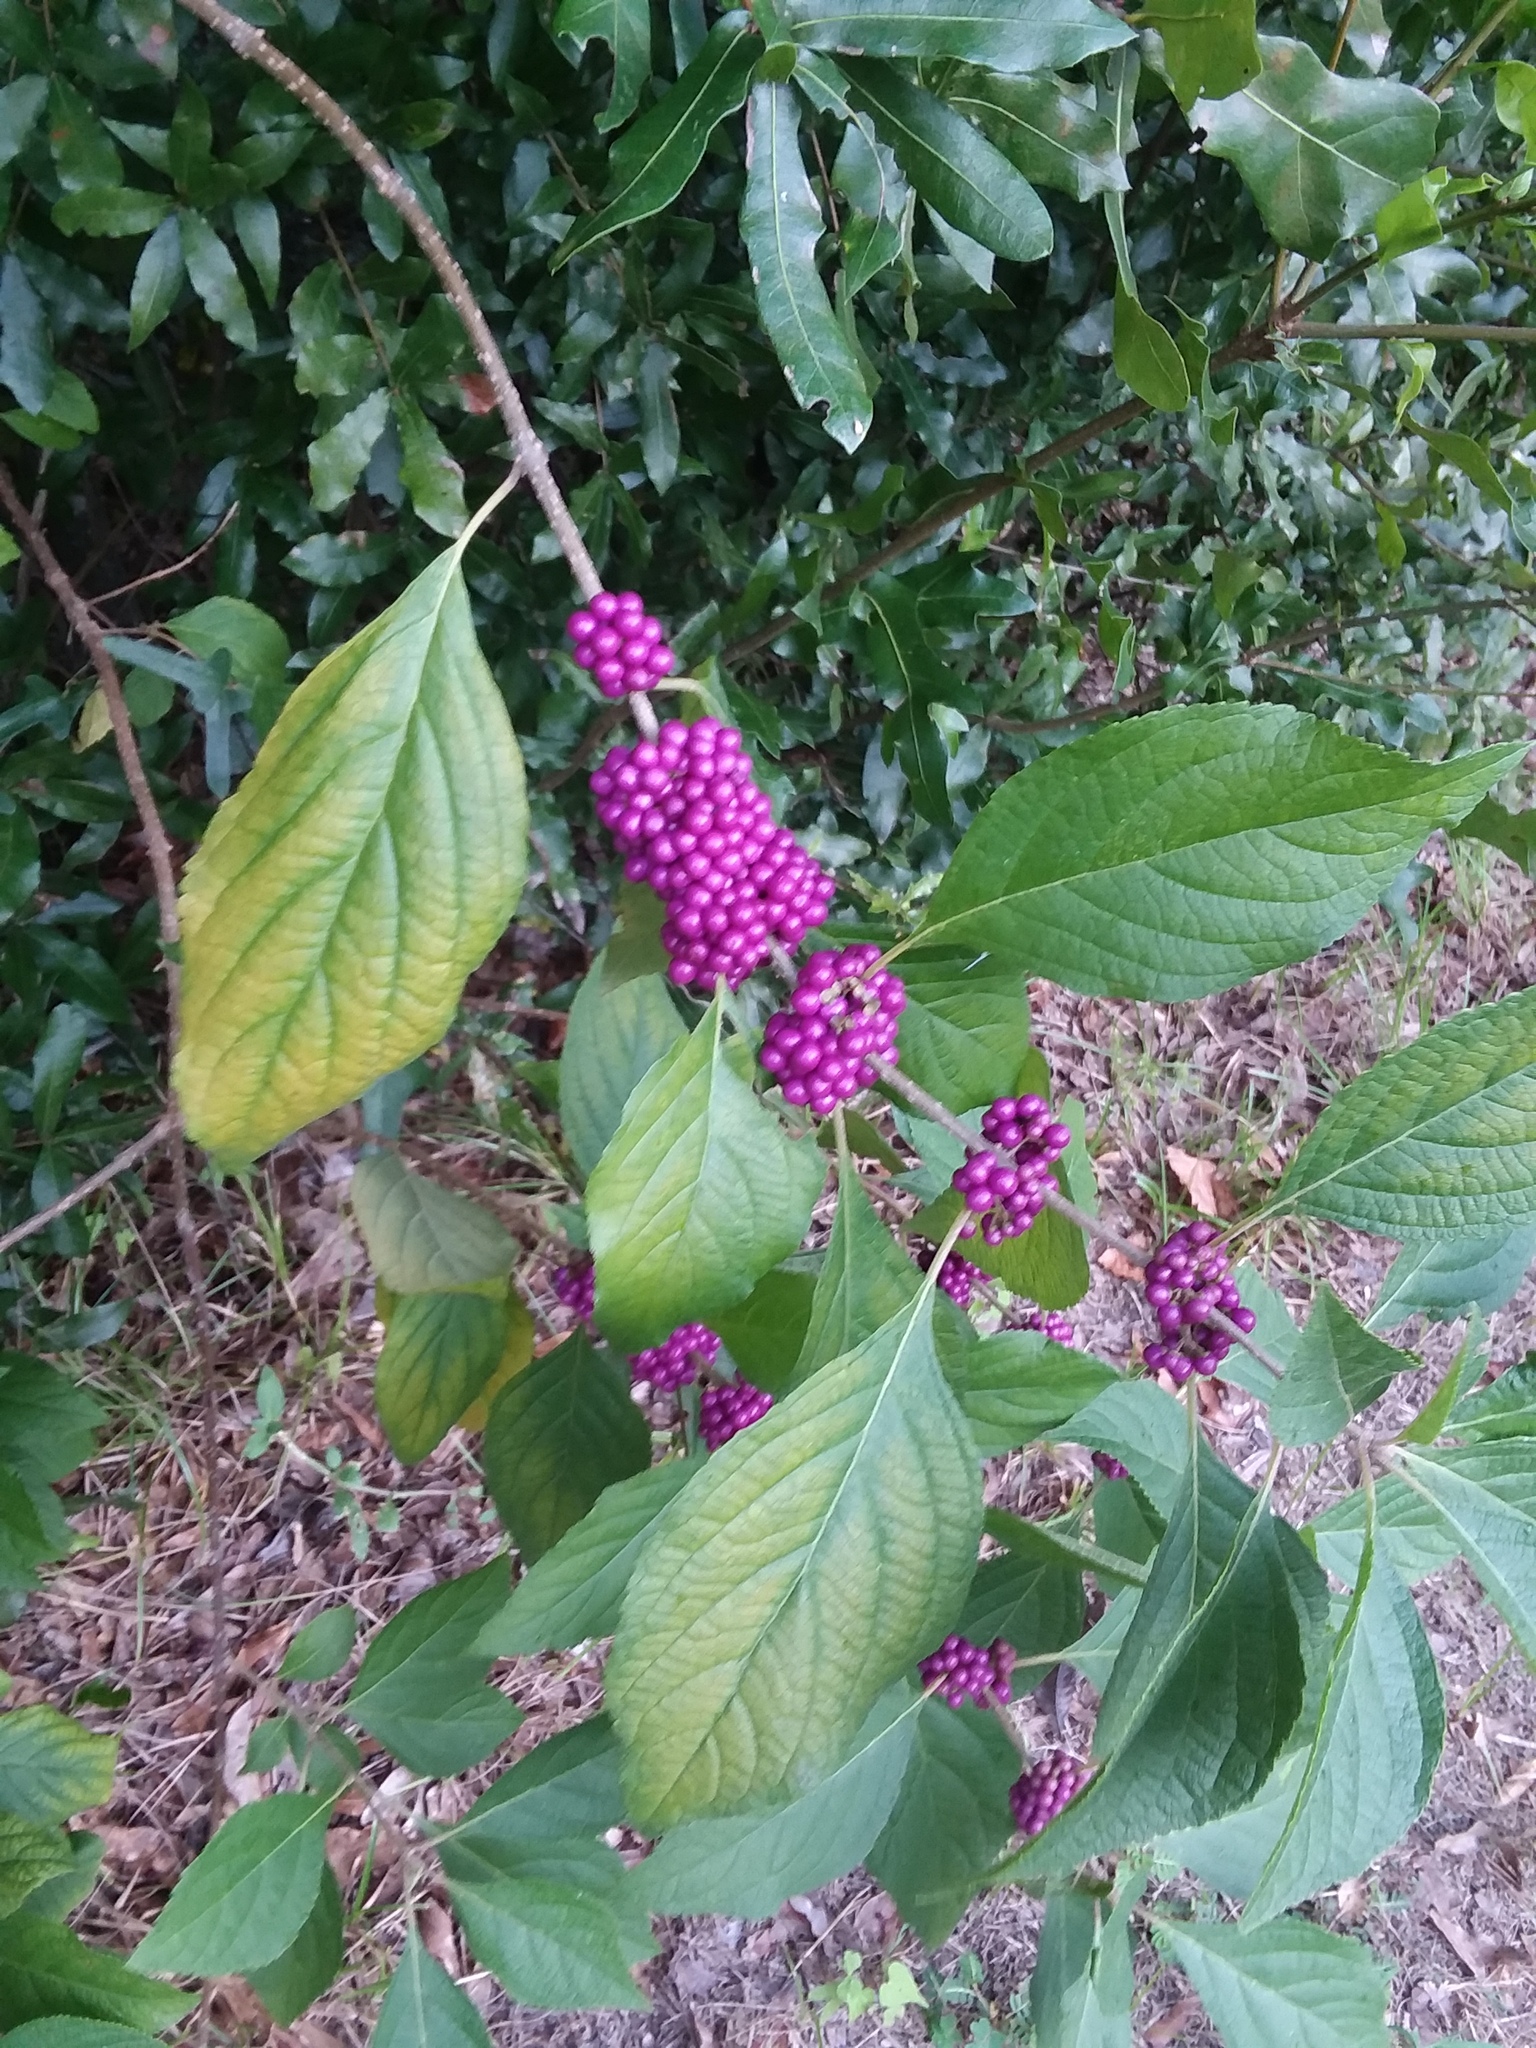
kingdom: Plantae
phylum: Tracheophyta
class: Magnoliopsida
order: Lamiales
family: Lamiaceae
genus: Callicarpa
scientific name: Callicarpa americana
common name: American beautyberry
